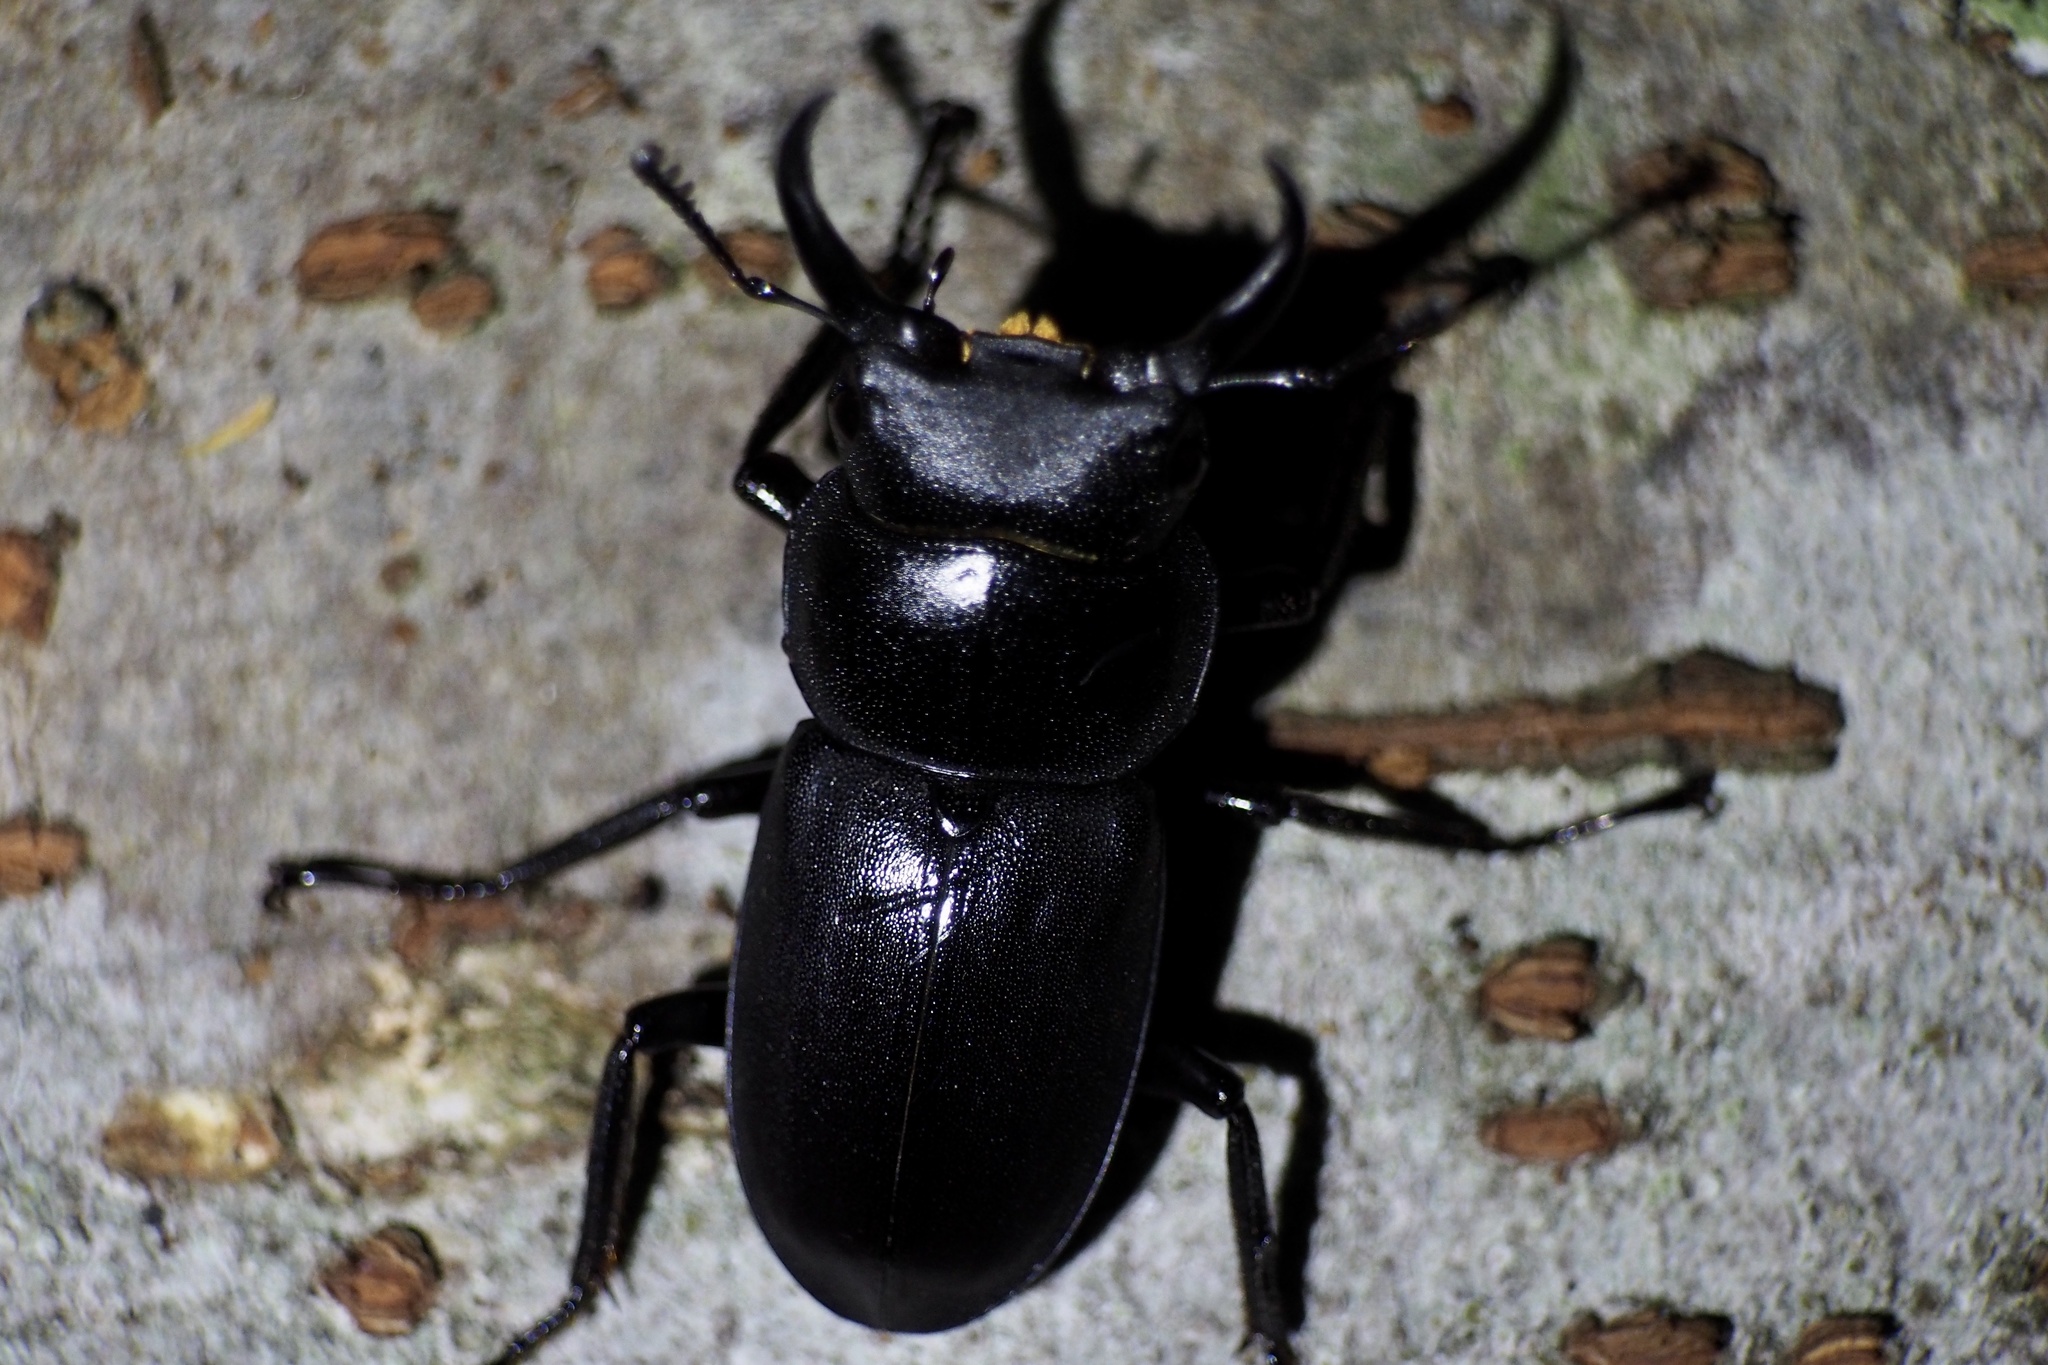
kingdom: Animalia
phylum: Arthropoda
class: Insecta
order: Coleoptera
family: Lucanidae
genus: Dorcus
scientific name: Dorcus rectus
